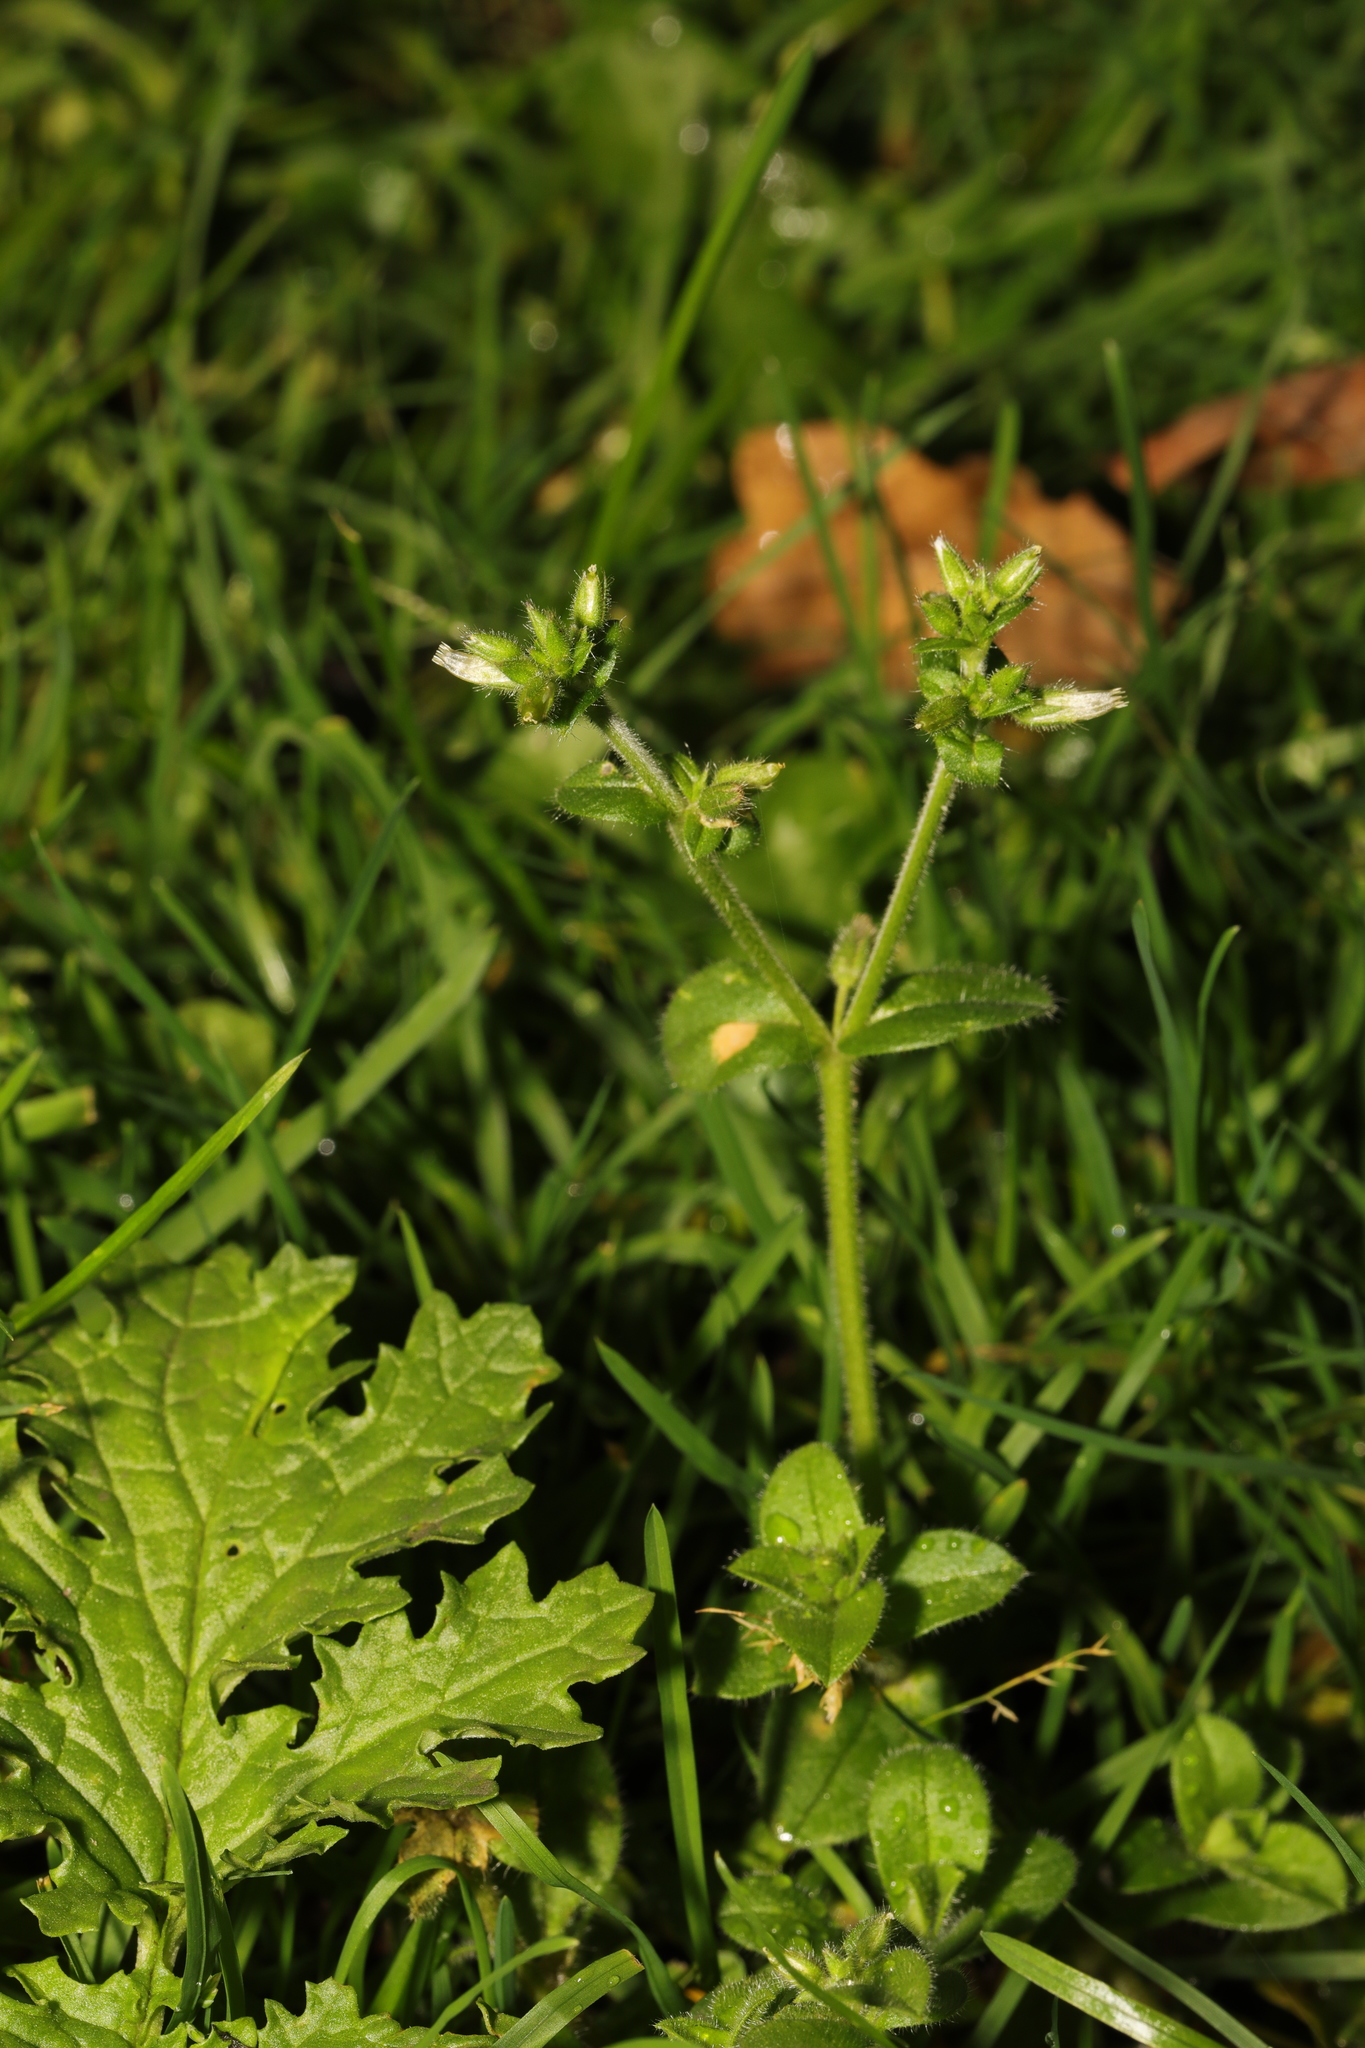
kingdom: Plantae
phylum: Tracheophyta
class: Magnoliopsida
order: Caryophyllales
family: Caryophyllaceae
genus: Cerastium
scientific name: Cerastium fontanum
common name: Common mouse-ear
